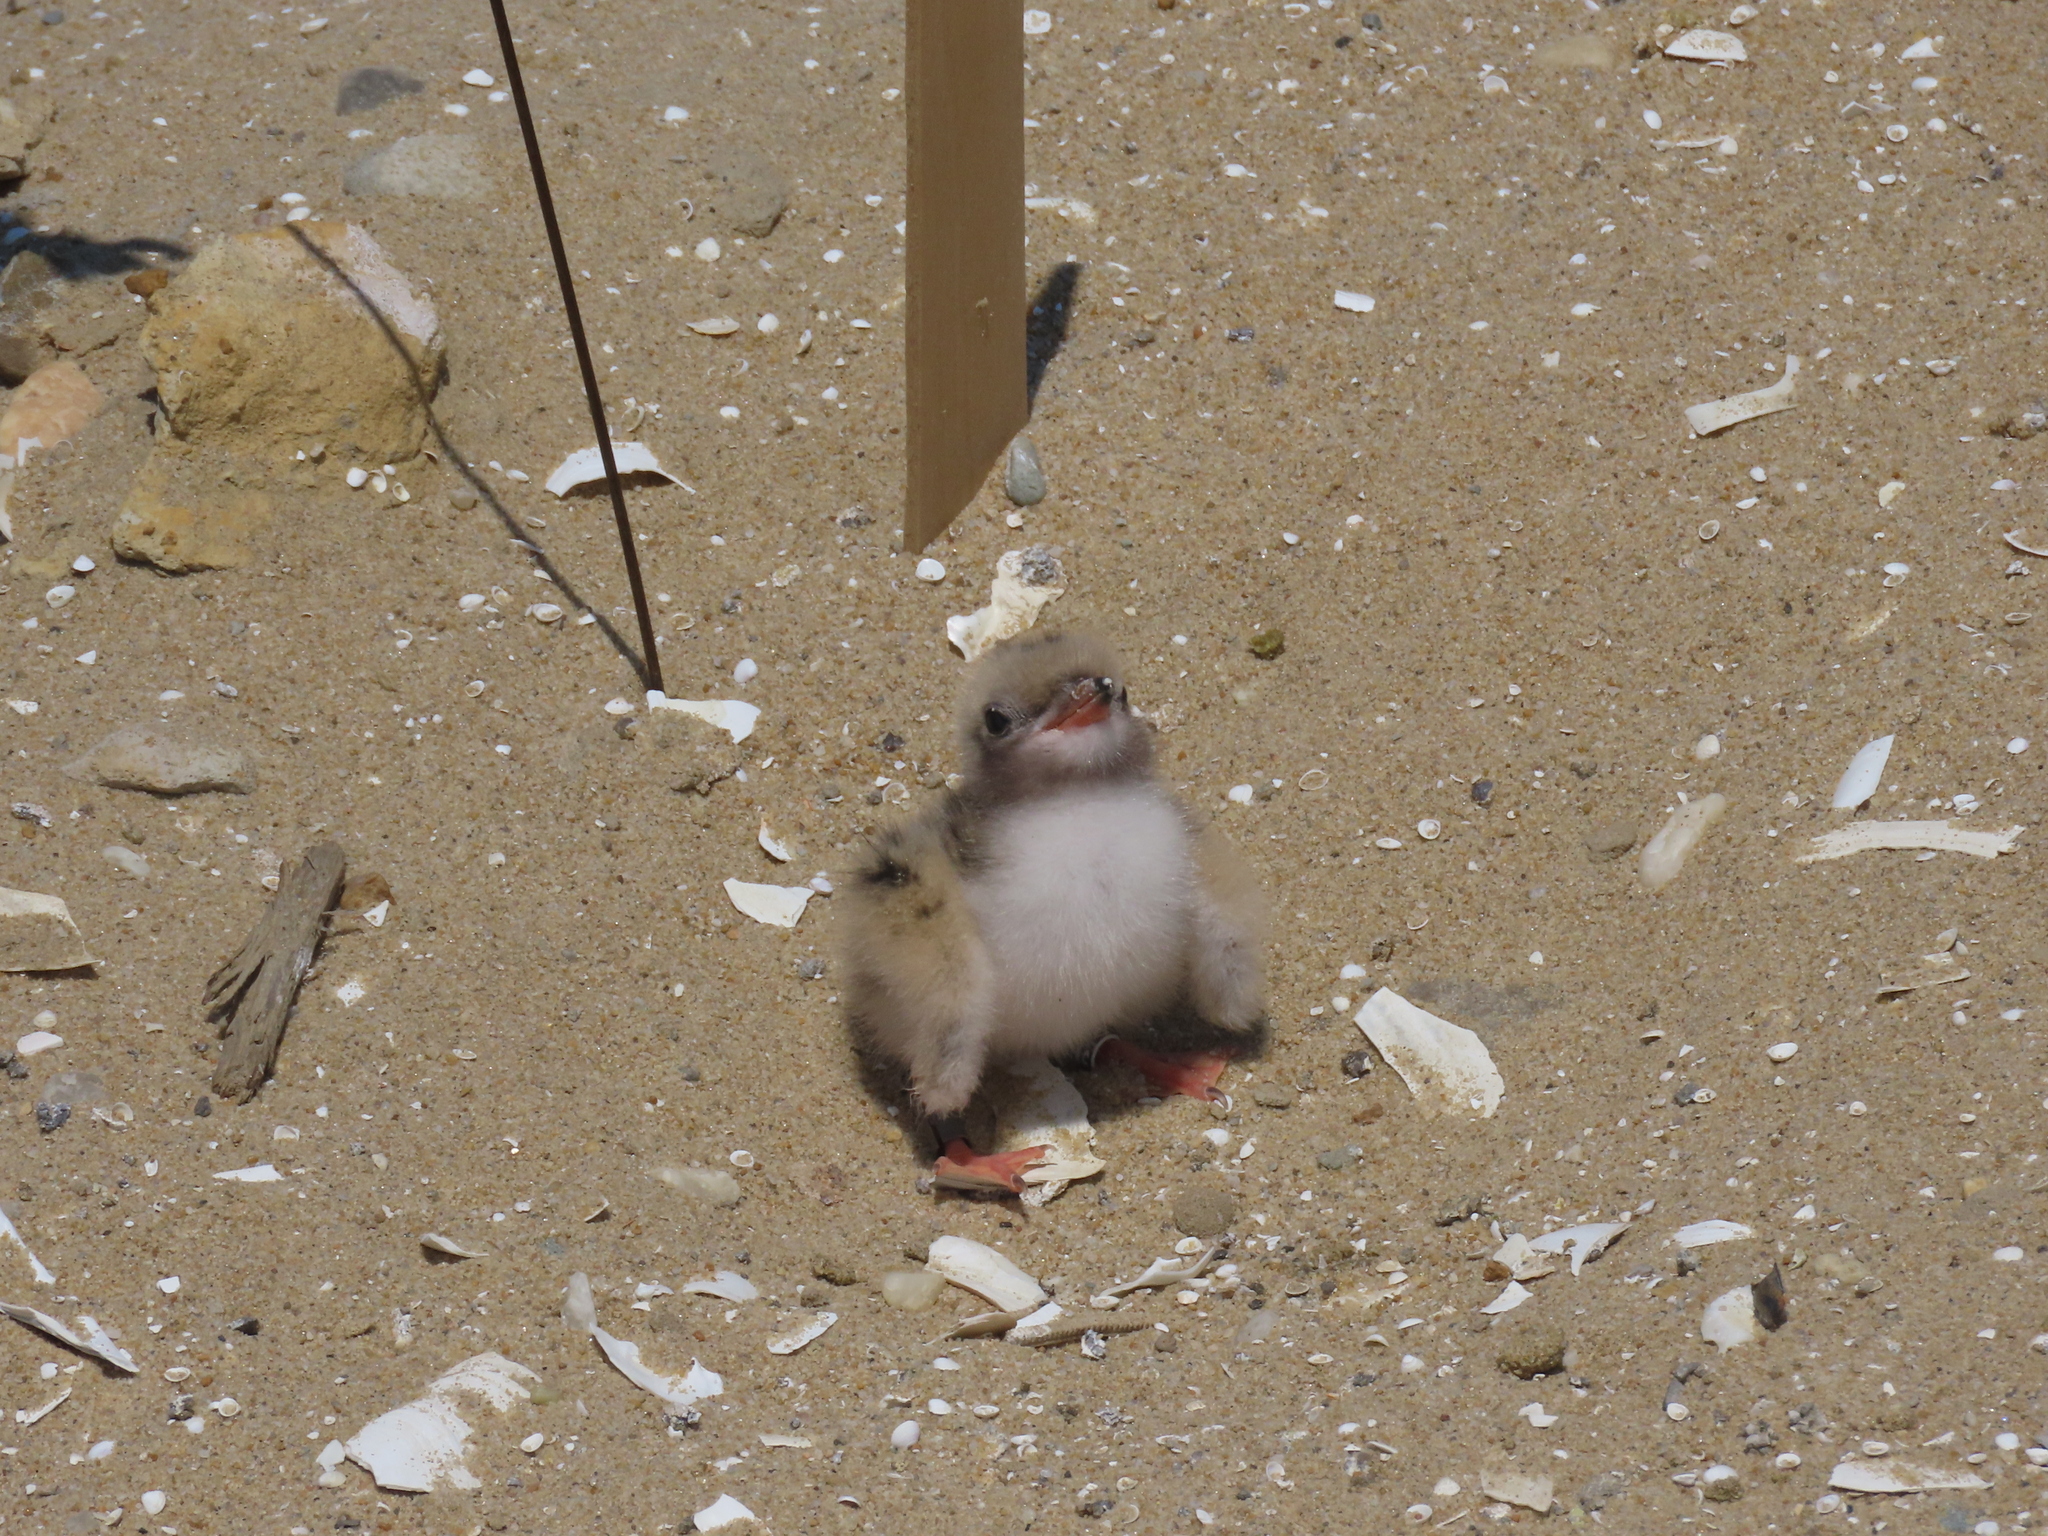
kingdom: Animalia
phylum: Chordata
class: Aves
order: Charadriiformes
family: Laridae
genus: Sterna
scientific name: Sterna hirundo
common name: Common tern
